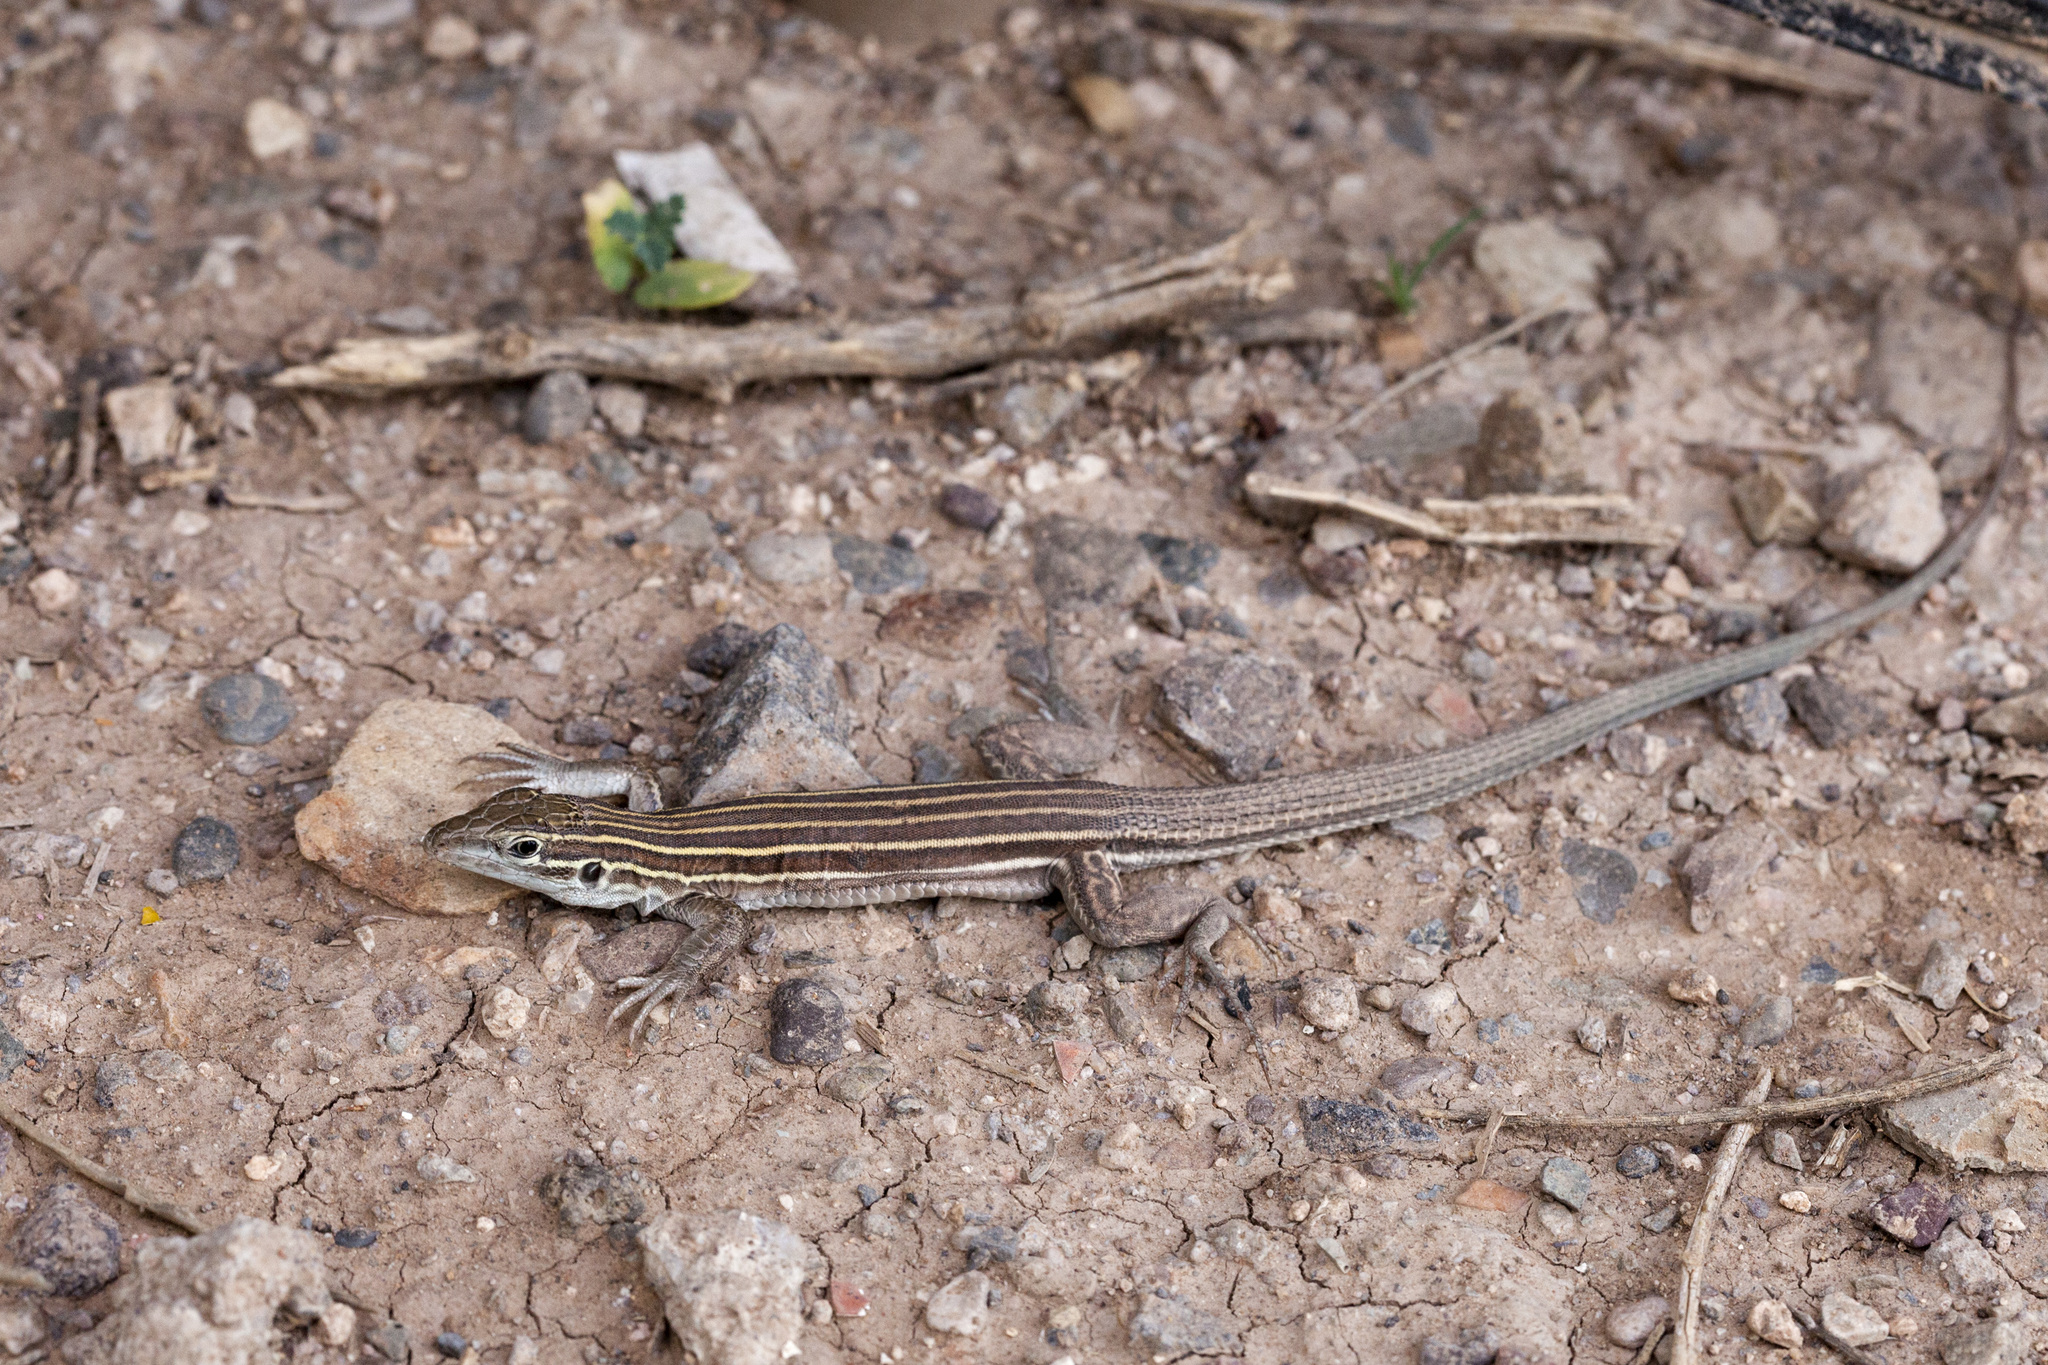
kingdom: Animalia
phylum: Chordata
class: Squamata
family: Teiidae
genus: Aspidoscelis
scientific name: Aspidoscelis uniparens
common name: Desert grassland whiptail
